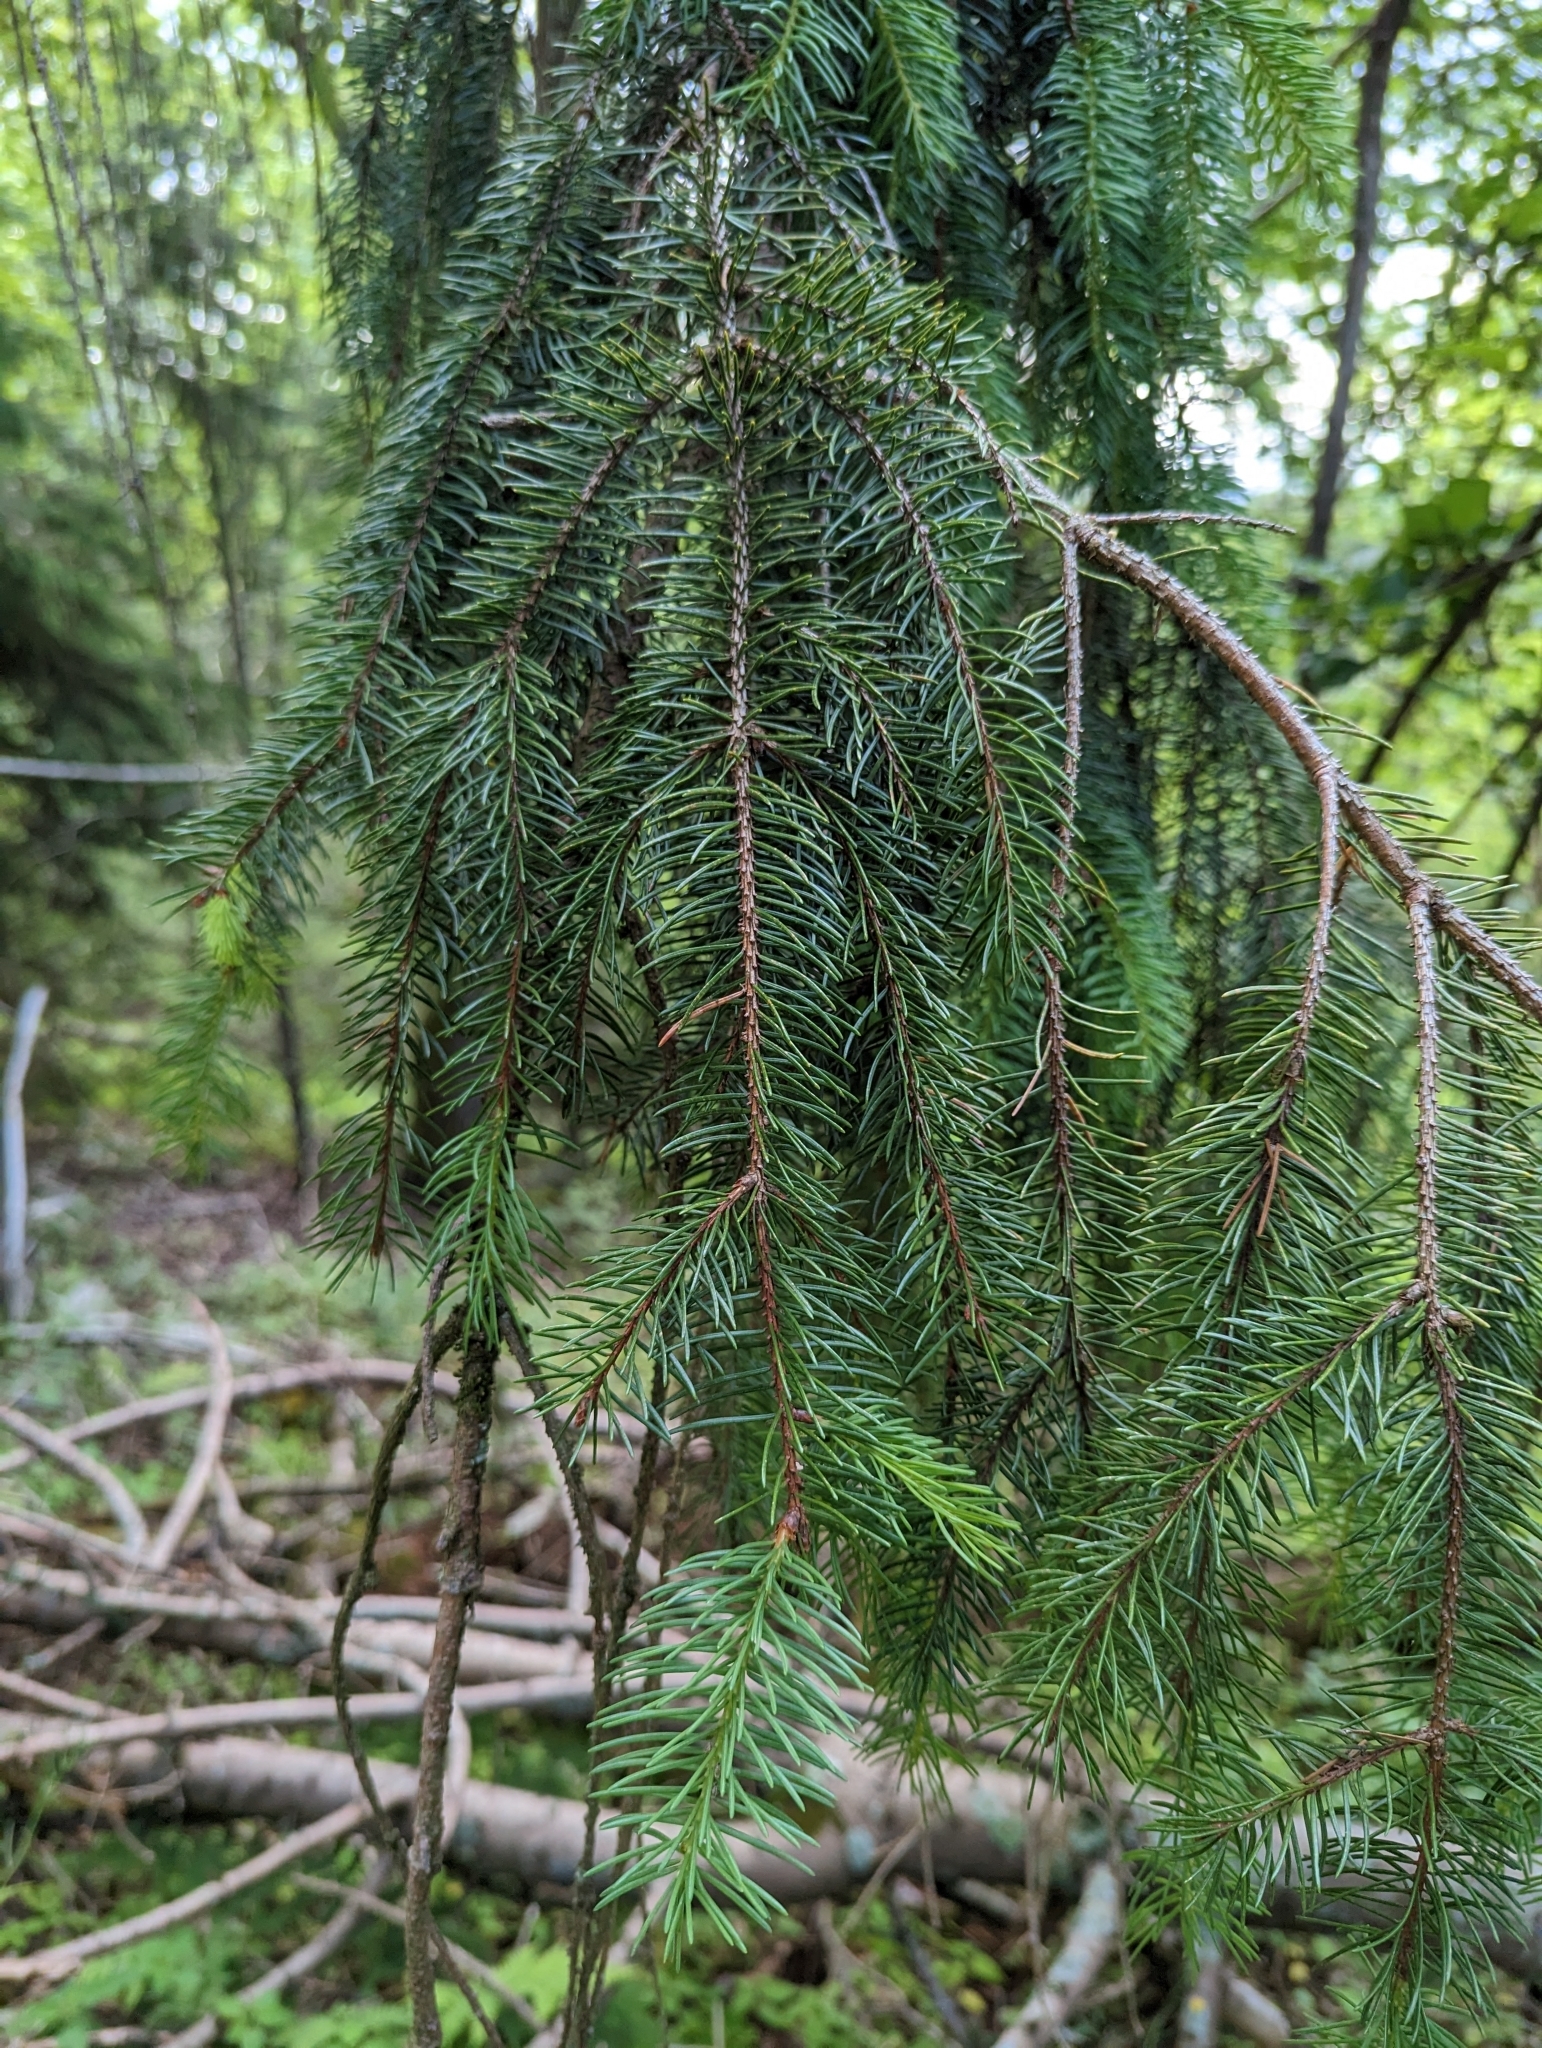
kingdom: Plantae
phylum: Tracheophyta
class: Pinopsida
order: Pinales
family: Pinaceae
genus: Picea
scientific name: Picea abies
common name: Norway spruce
